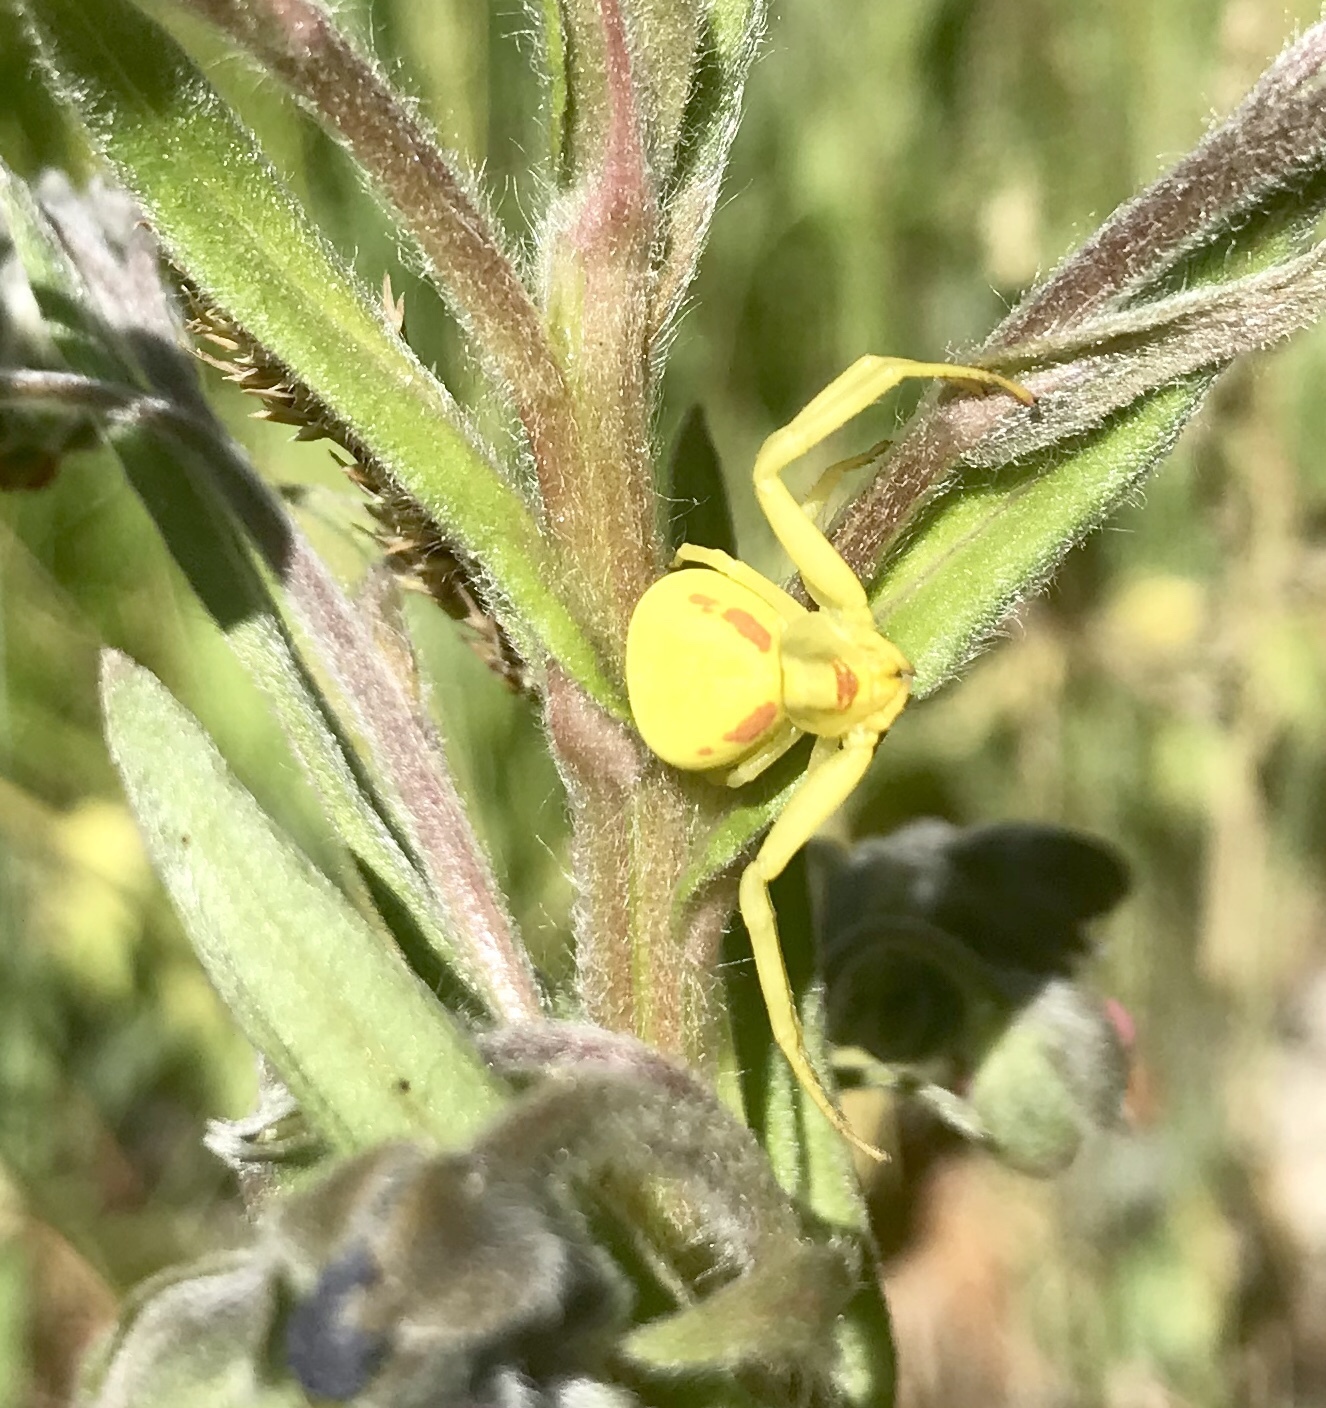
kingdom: Animalia
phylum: Arthropoda
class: Arachnida
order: Araneae
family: Thomisidae
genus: Misumena
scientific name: Misumena vatia
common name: Goldenrod crab spider
